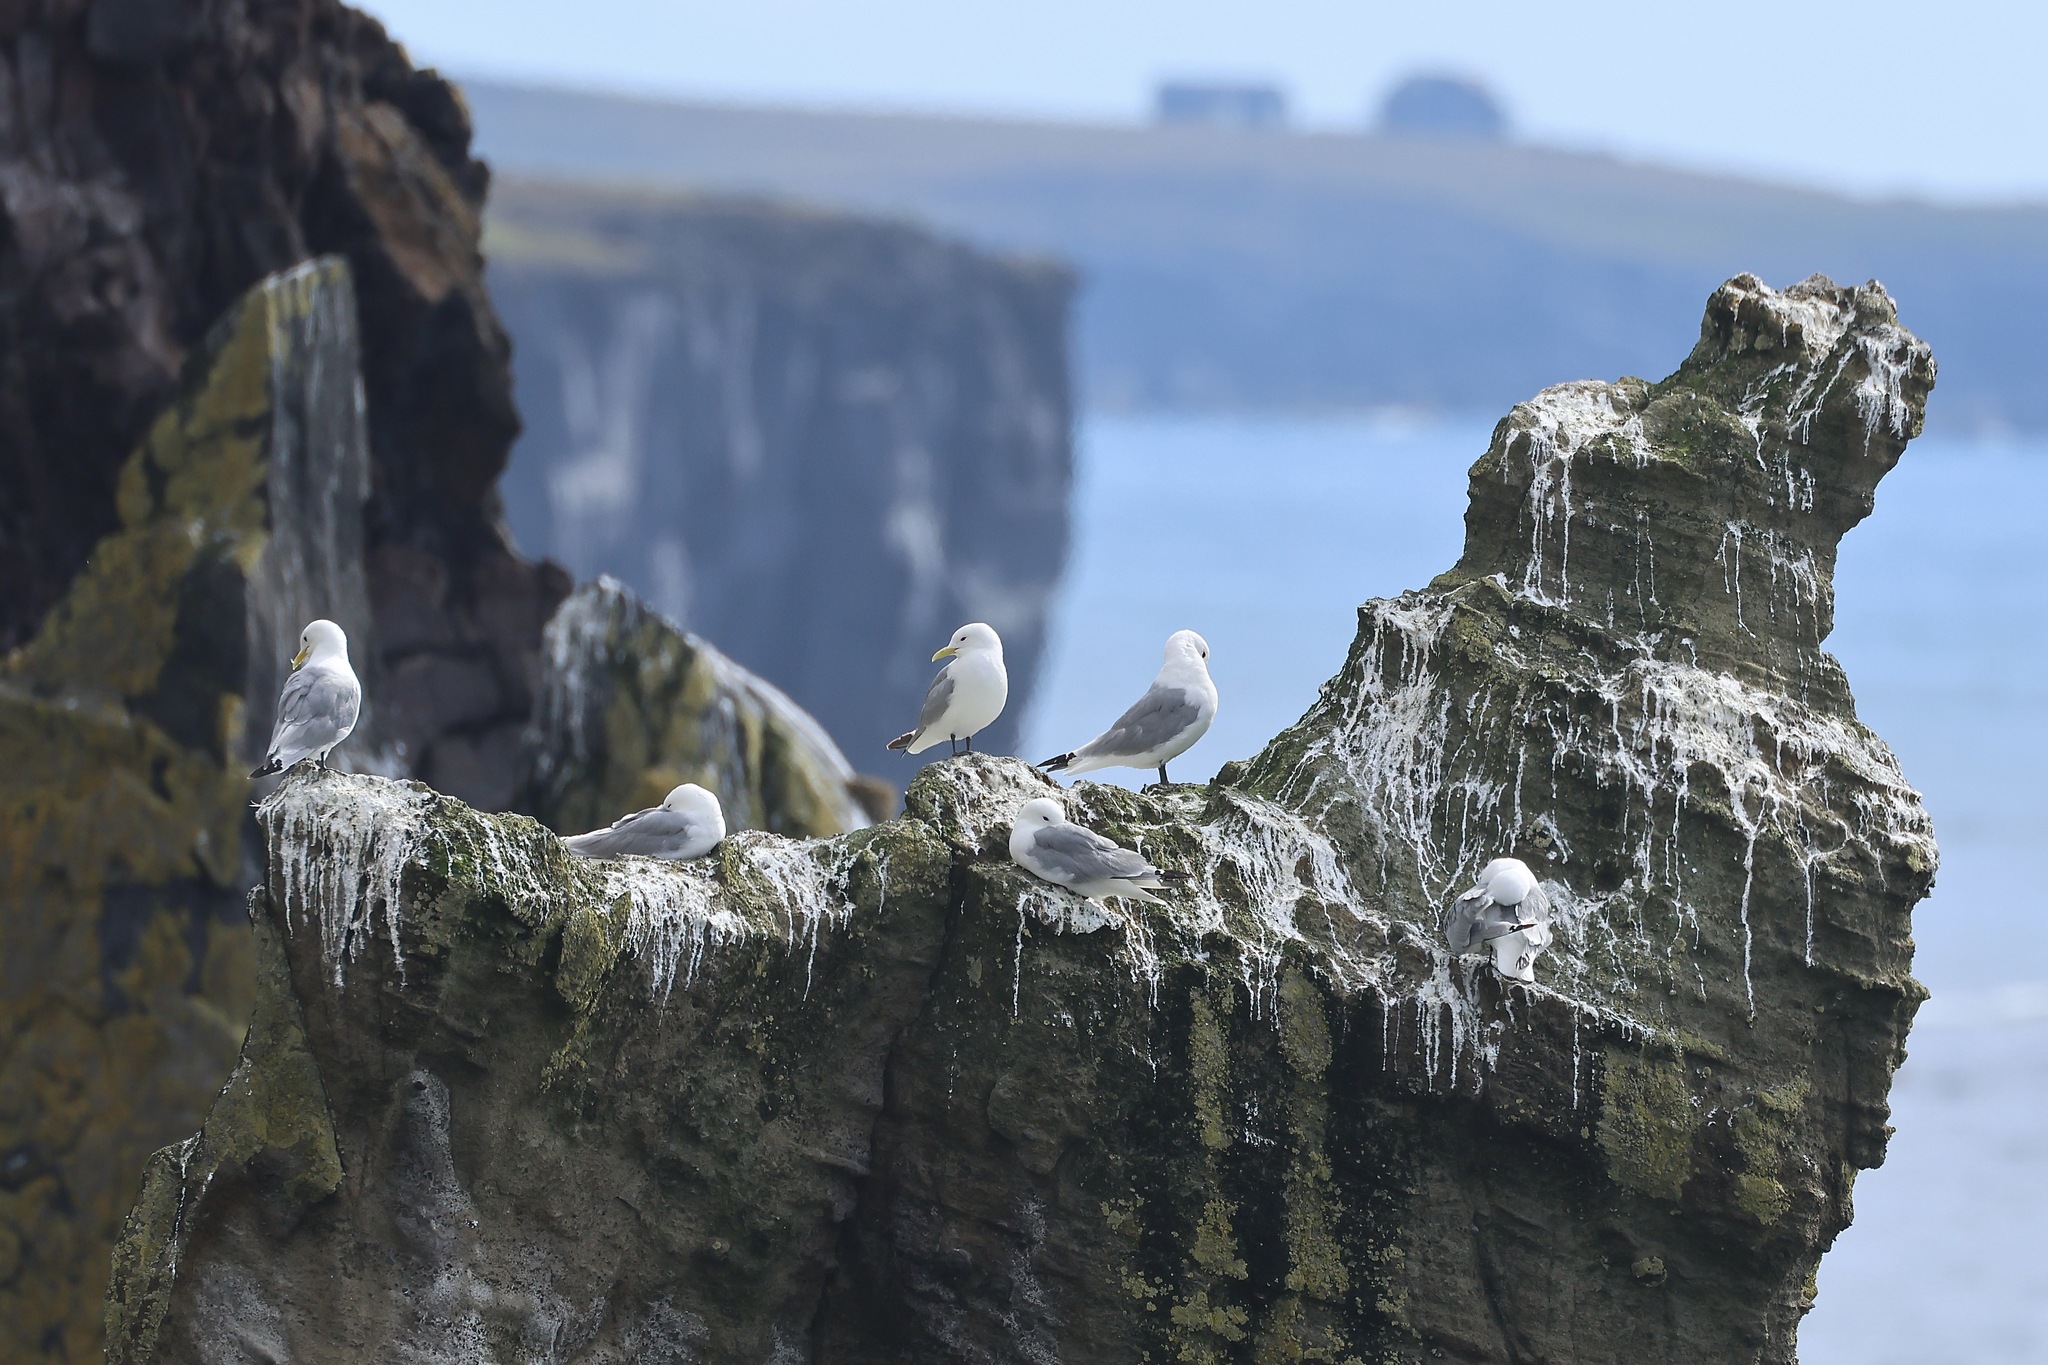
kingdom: Animalia
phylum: Chordata
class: Aves
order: Charadriiformes
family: Laridae
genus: Rissa
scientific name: Rissa tridactyla
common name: Black-legged kittiwake
